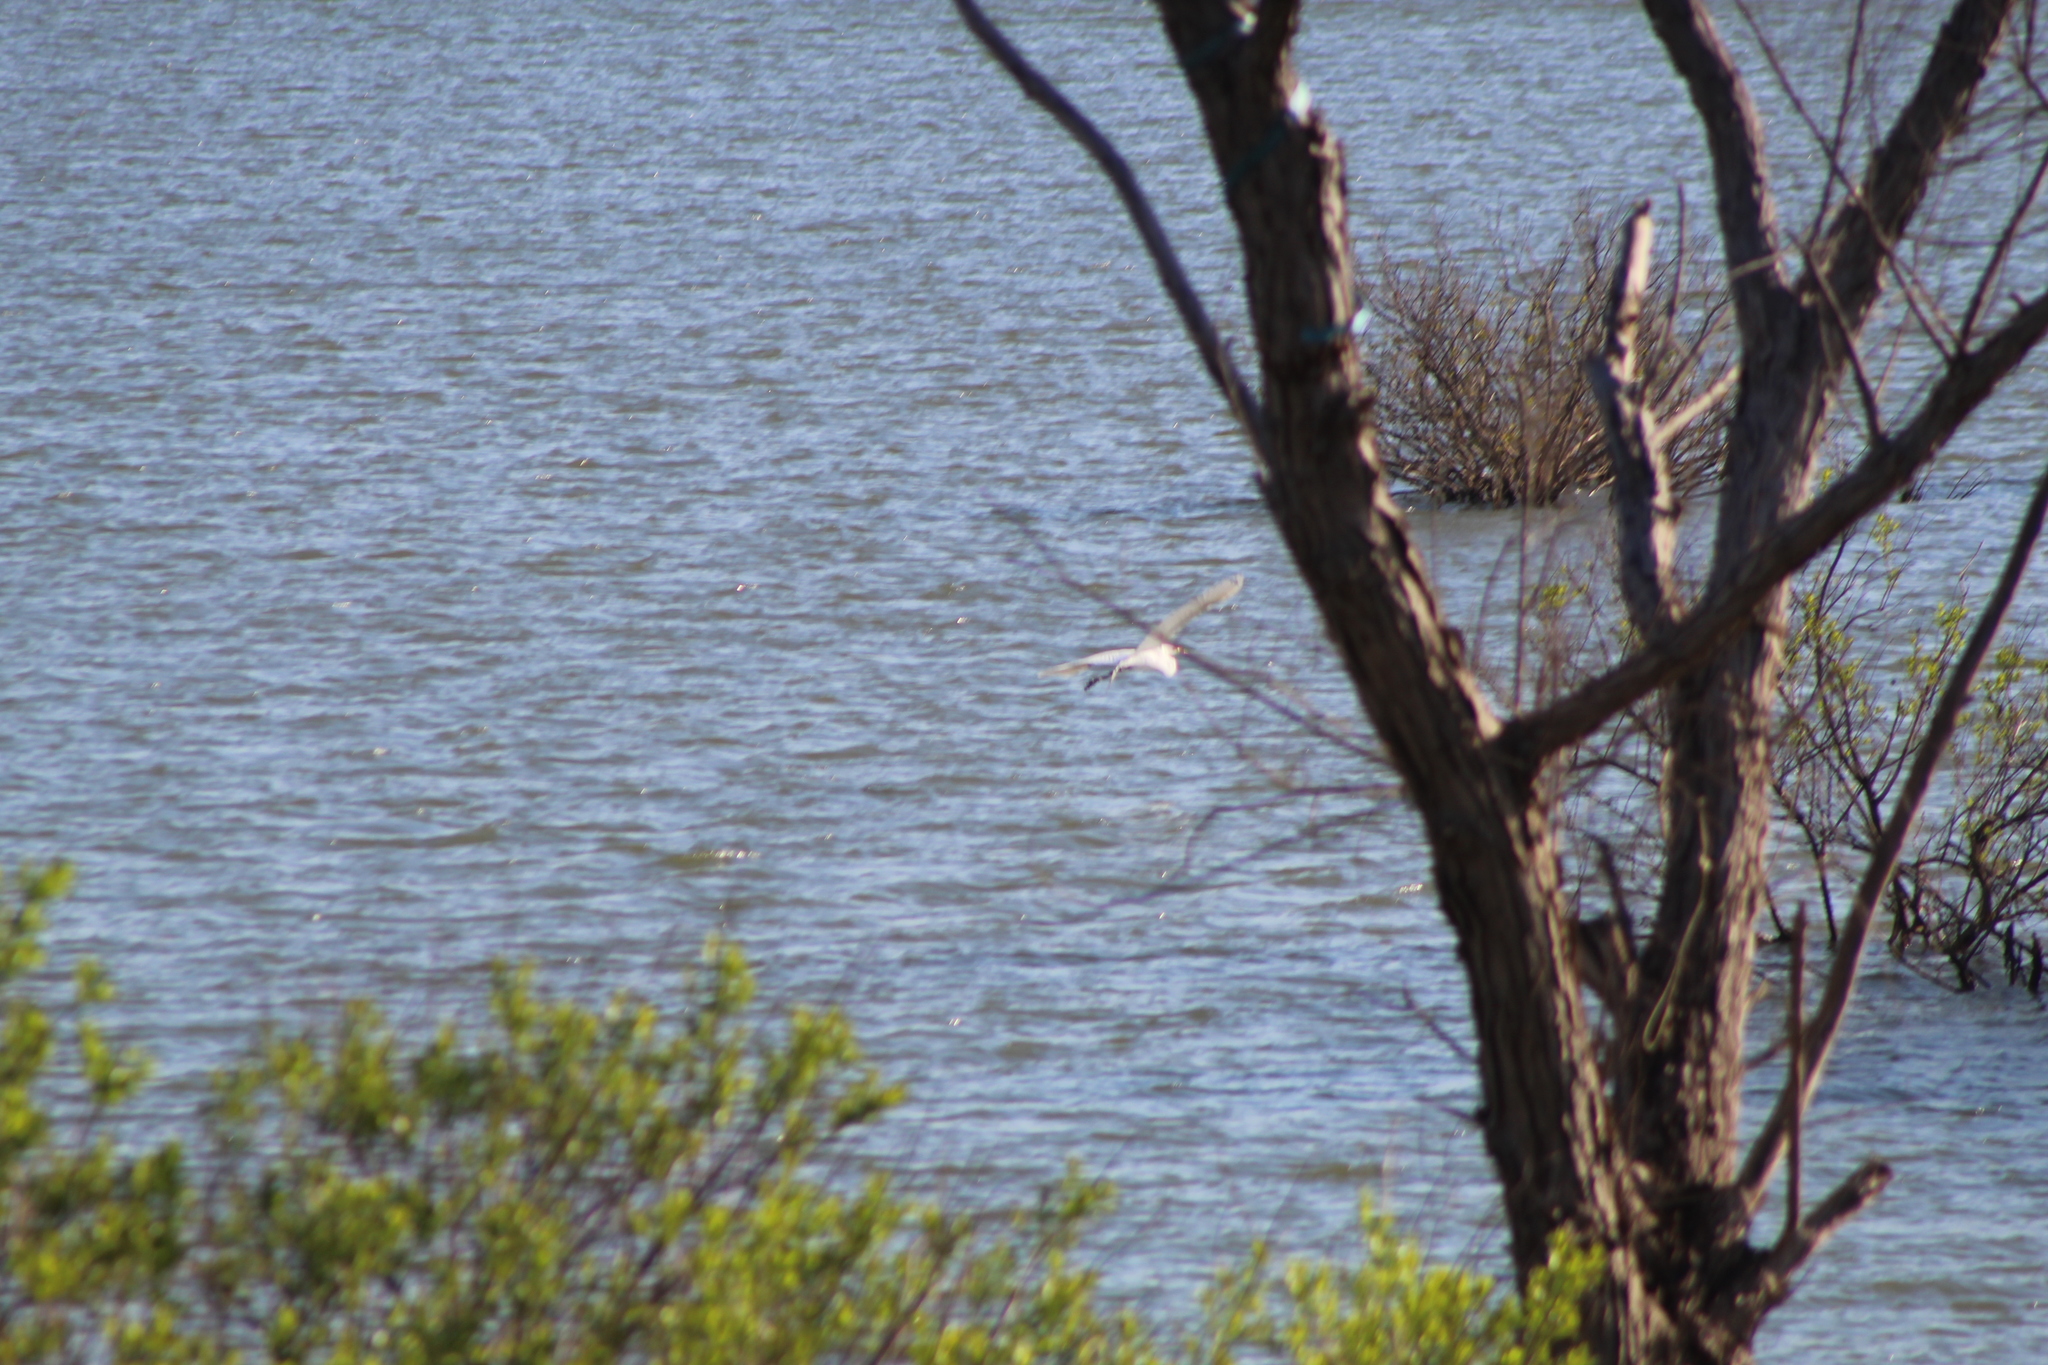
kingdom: Animalia
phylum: Chordata
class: Aves
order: Pelecaniformes
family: Ardeidae
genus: Ardea
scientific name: Ardea alba
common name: Great egret
